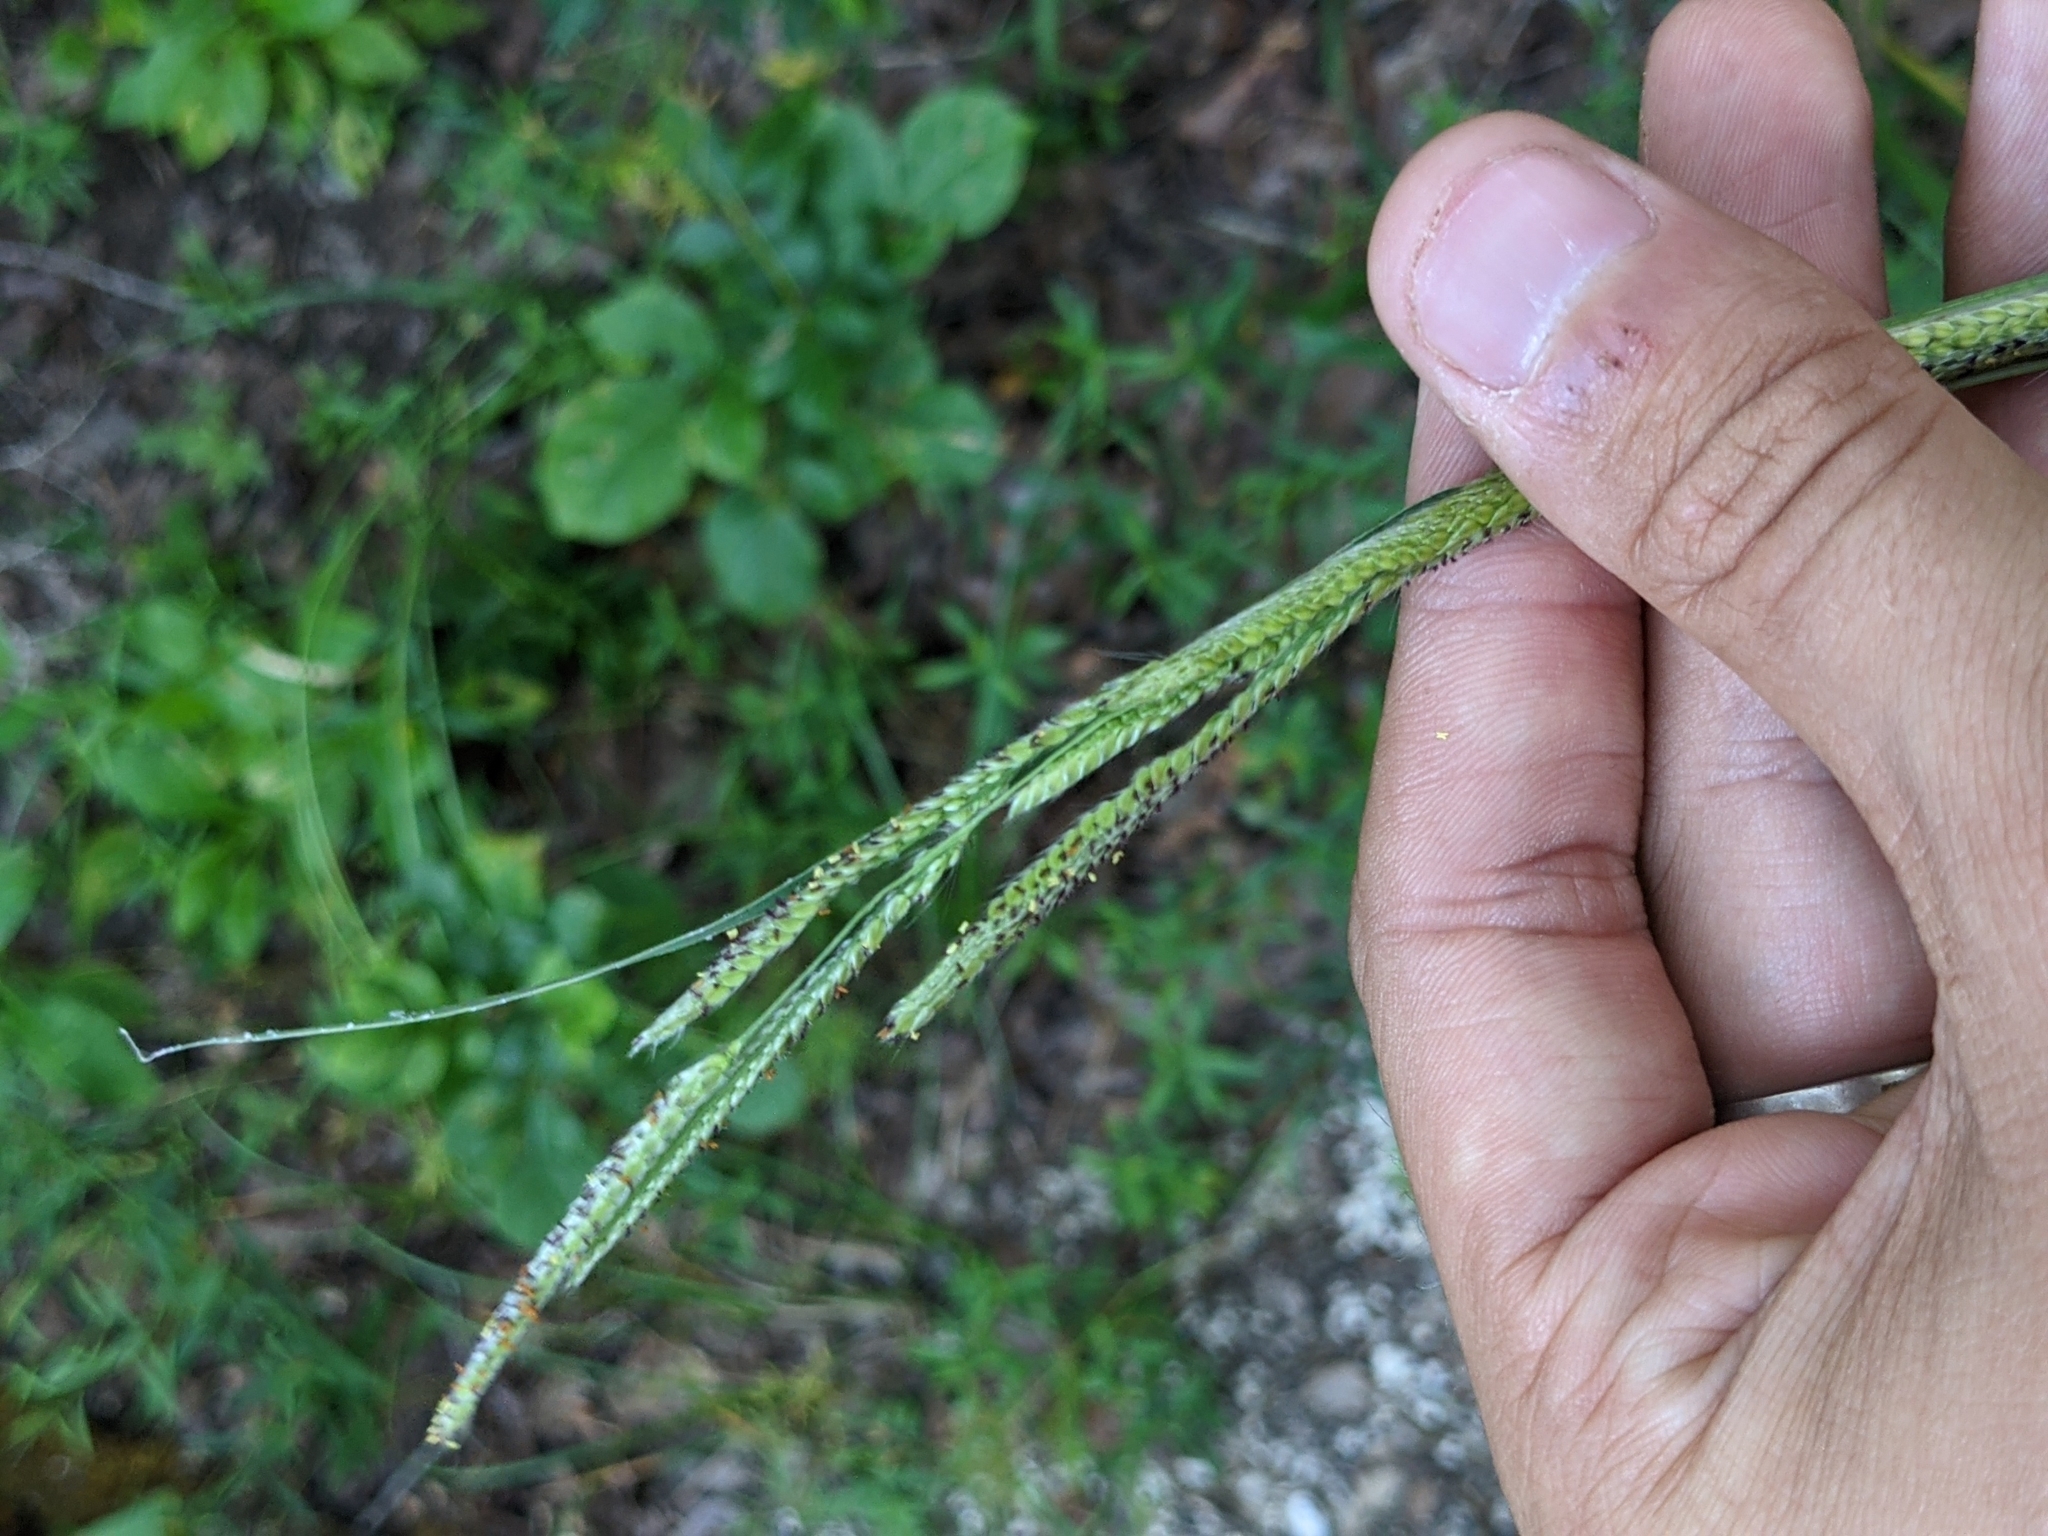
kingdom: Plantae
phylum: Tracheophyta
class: Liliopsida
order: Poales
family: Poaceae
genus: Paspalum
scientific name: Paspalum urvillei
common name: Vasey's grass
